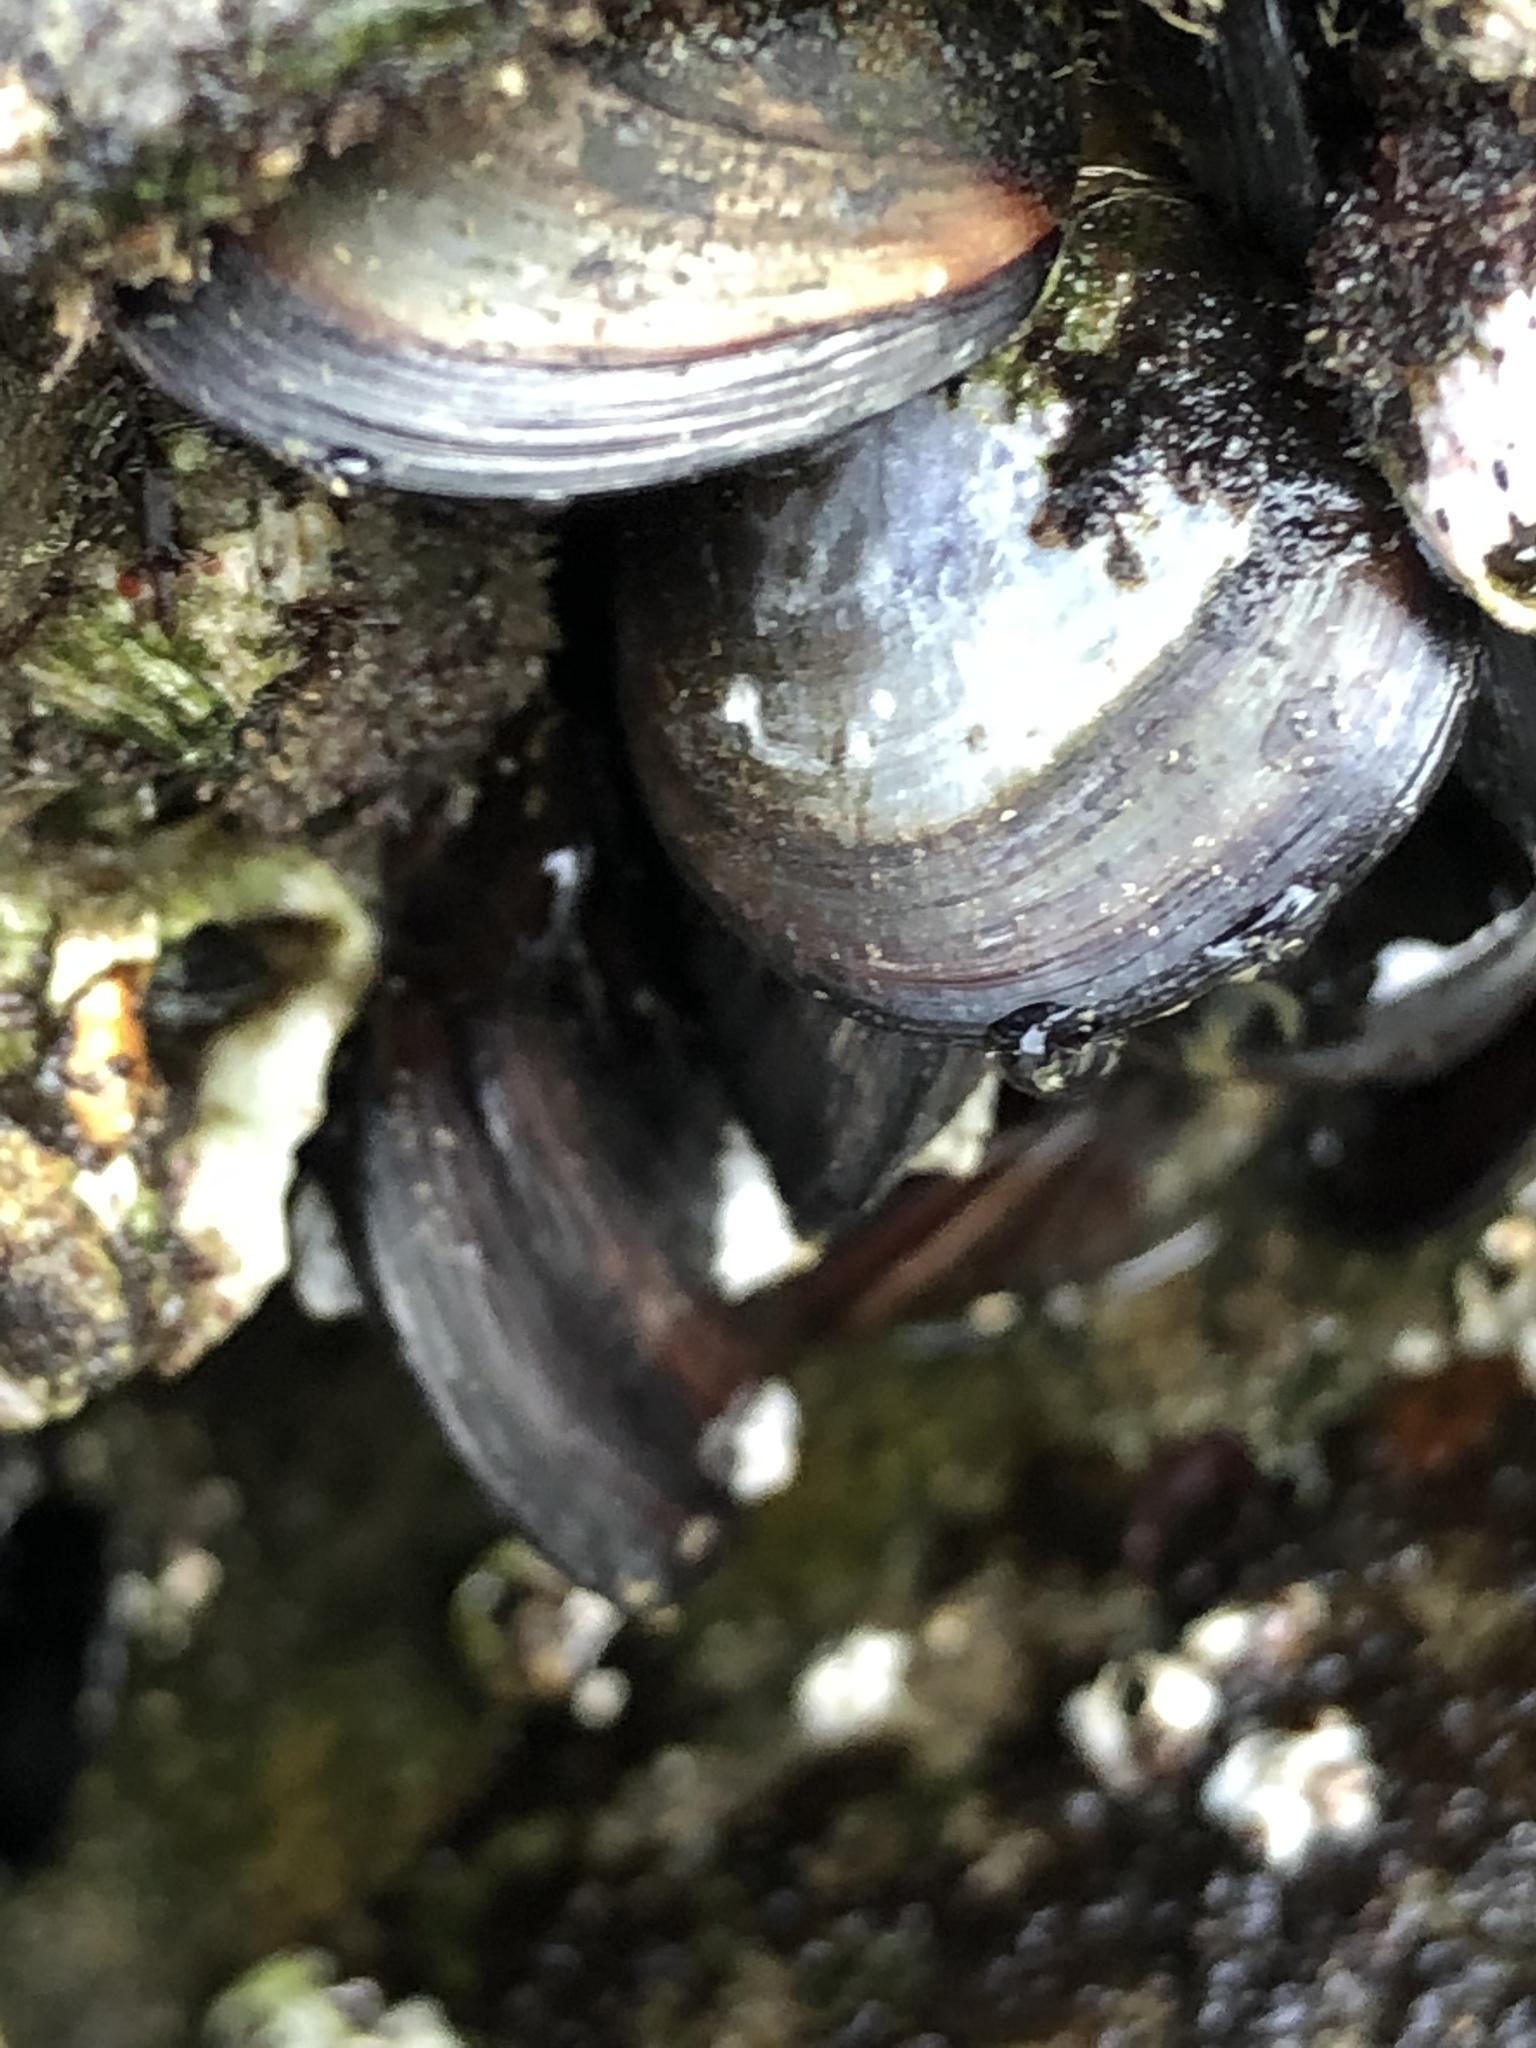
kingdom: Animalia
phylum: Mollusca
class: Bivalvia
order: Mytilida
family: Mytilidae
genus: Mytilus
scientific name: Mytilus edulis
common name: Blue mussel
